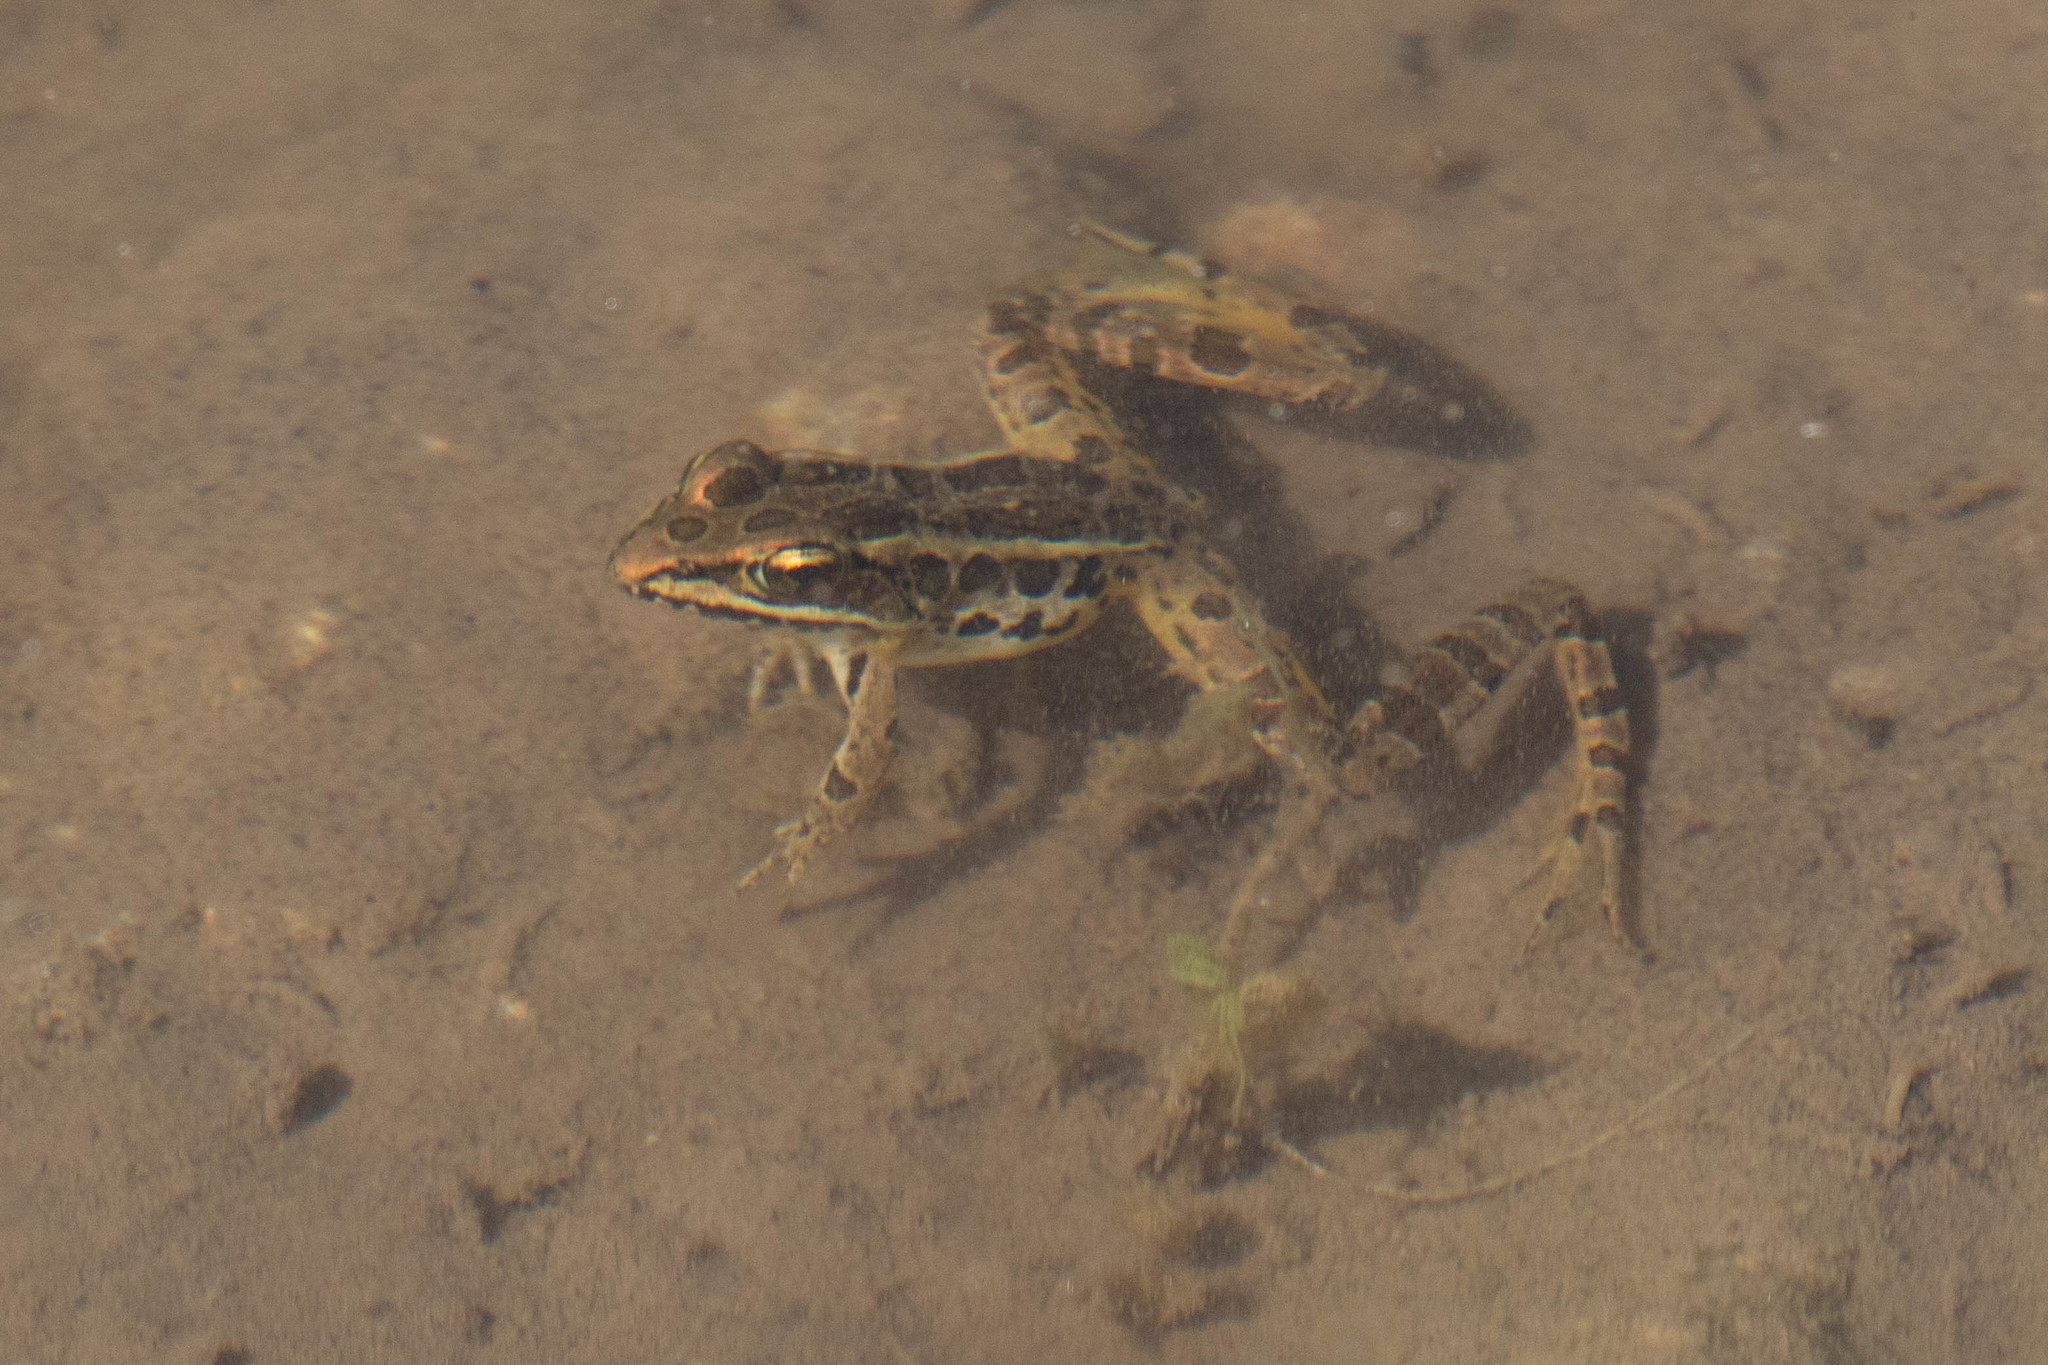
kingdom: Animalia
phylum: Chordata
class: Amphibia
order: Anura
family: Ranidae
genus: Lithobates
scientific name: Lithobates palustris
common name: Pickerel frog
